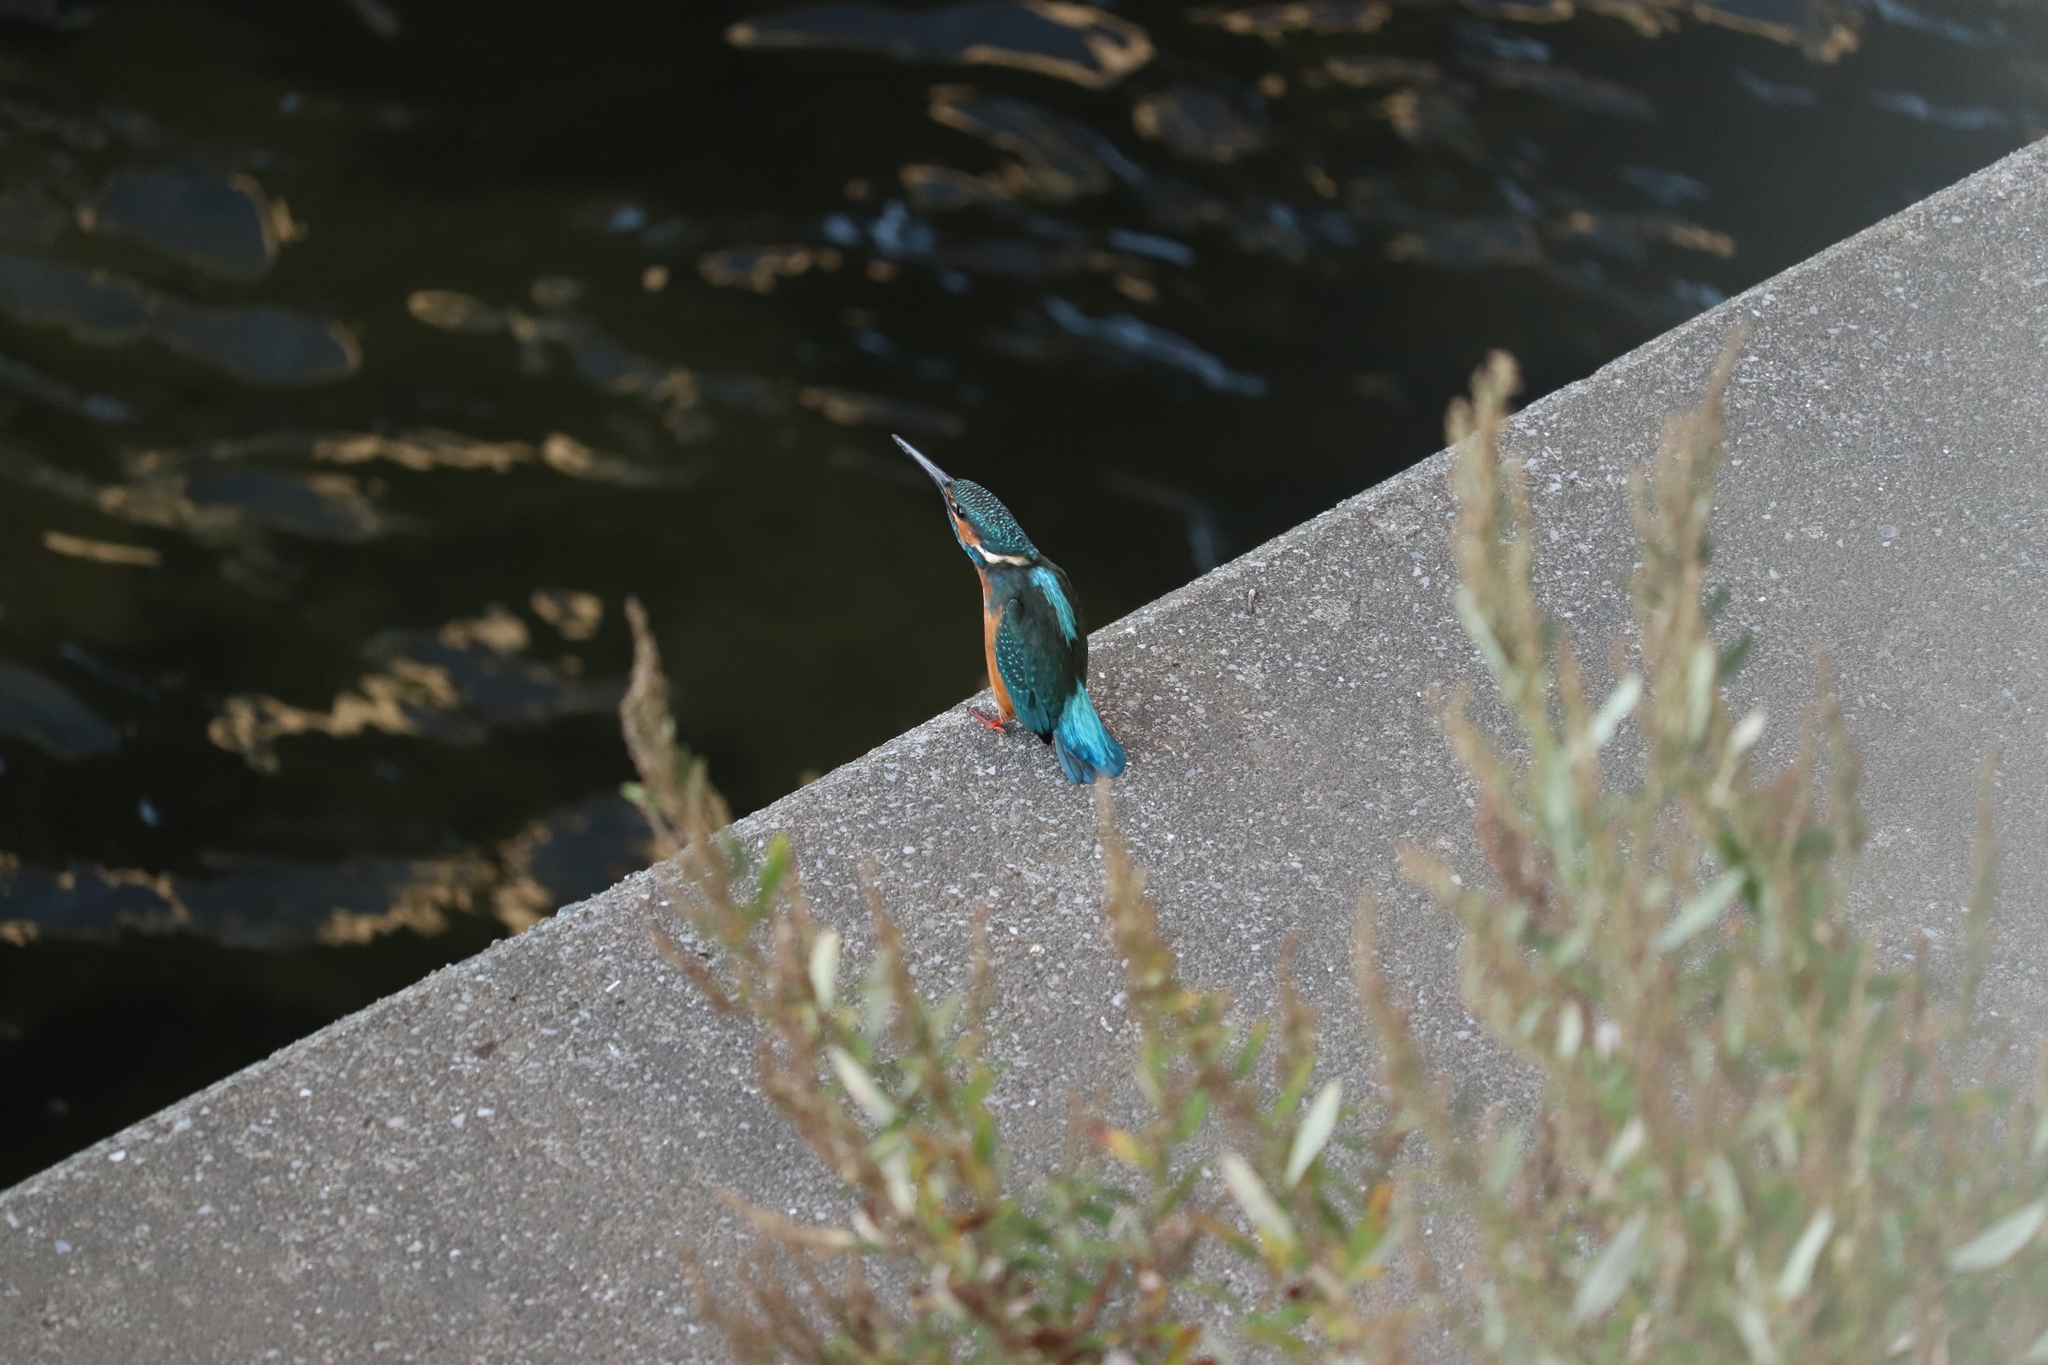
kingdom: Animalia
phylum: Chordata
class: Aves
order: Coraciiformes
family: Alcedinidae
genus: Alcedo
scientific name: Alcedo atthis
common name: Common kingfisher
